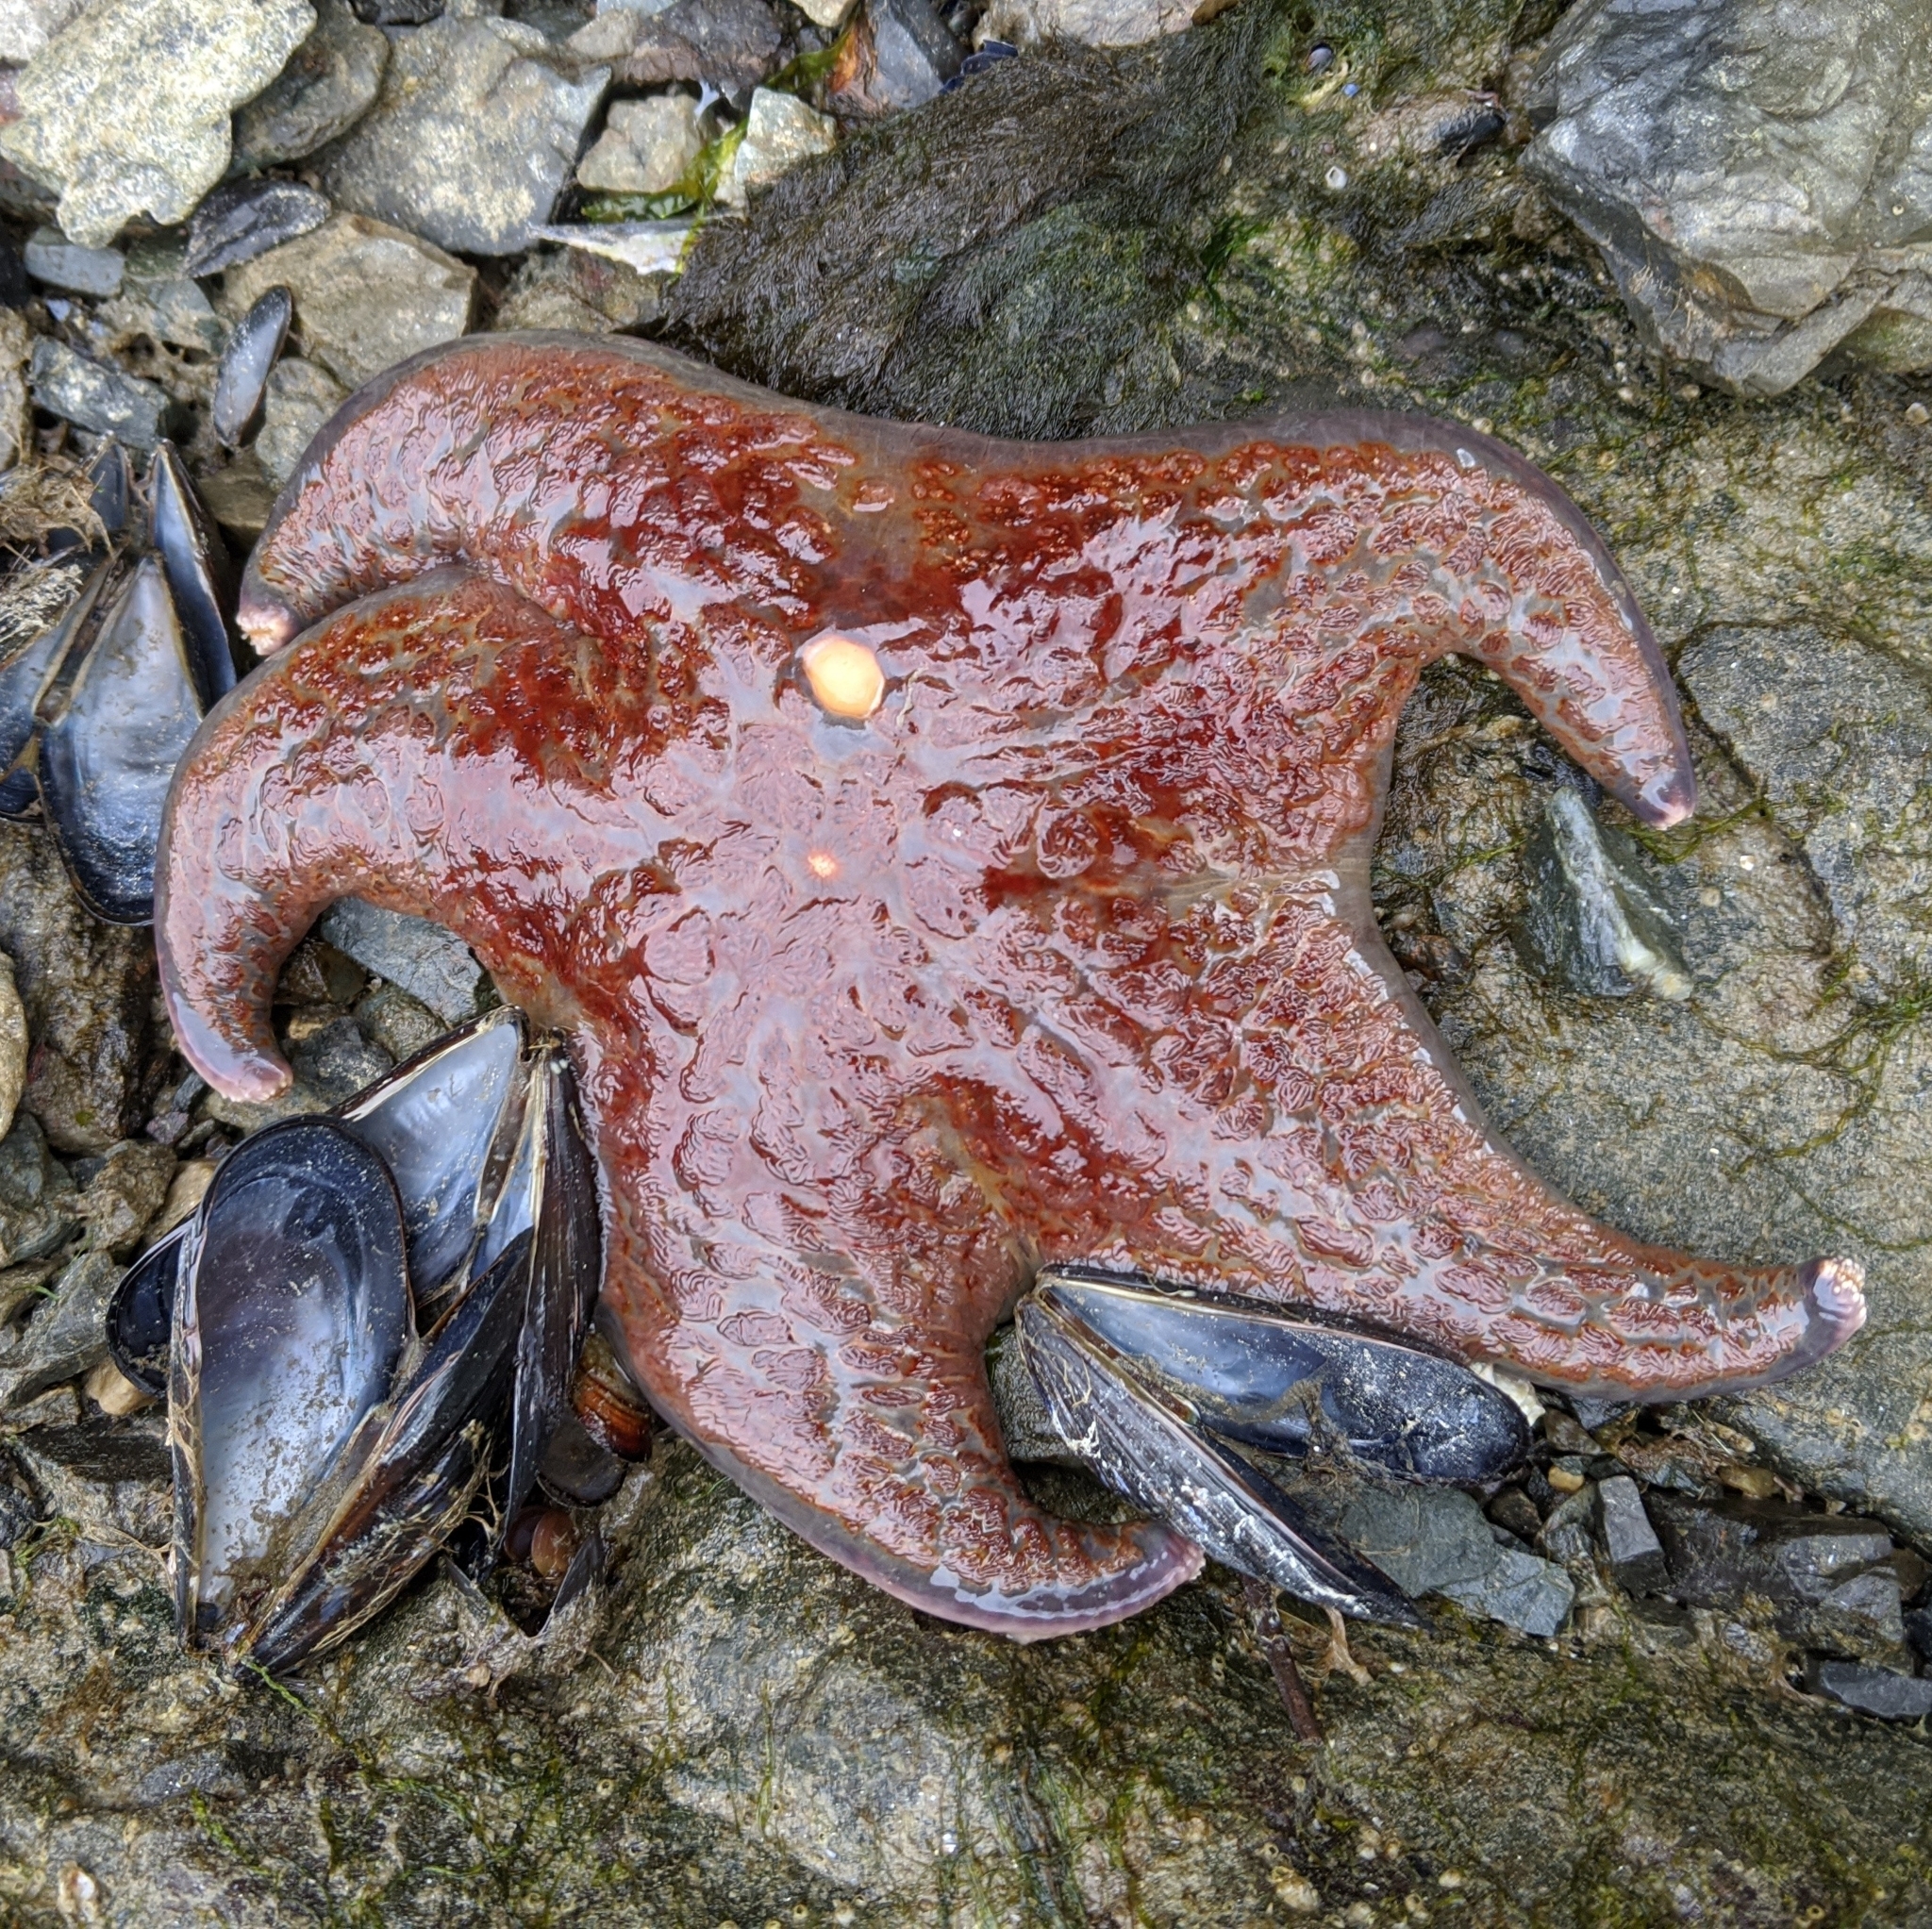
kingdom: Animalia
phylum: Echinodermata
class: Asteroidea
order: Valvatida
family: Asteropseidae
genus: Dermasterias
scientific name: Dermasterias imbricata
